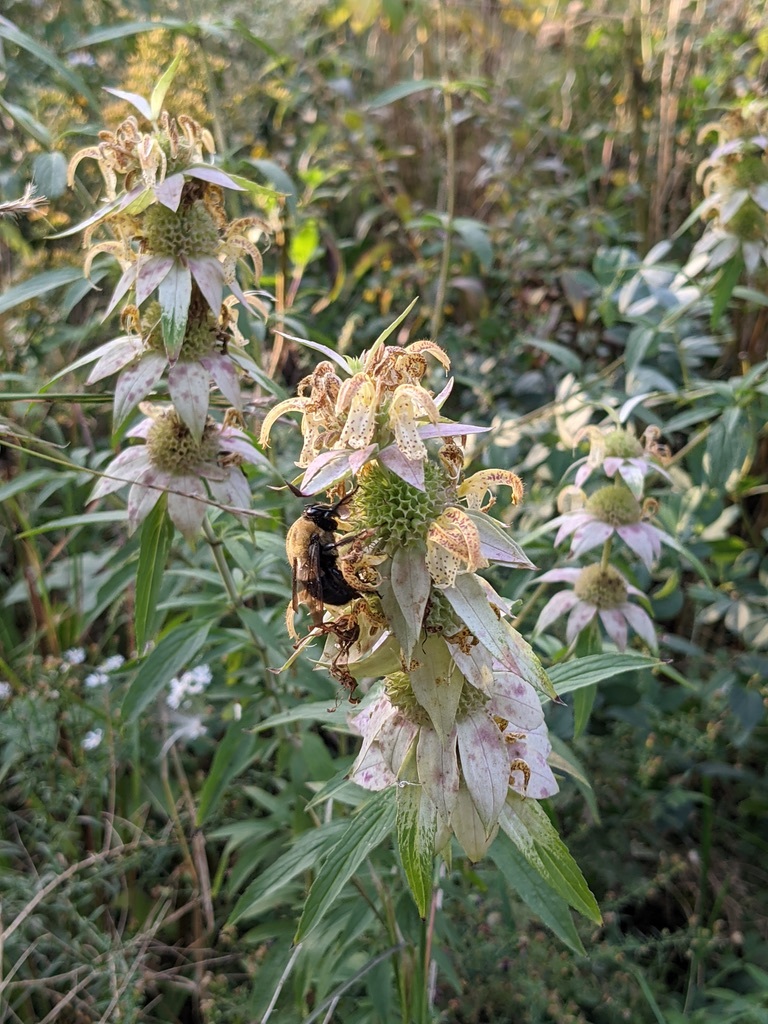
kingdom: Animalia
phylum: Arthropoda
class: Insecta
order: Hymenoptera
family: Apidae
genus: Xylocopa
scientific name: Xylocopa virginica
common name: Carpenter bee
